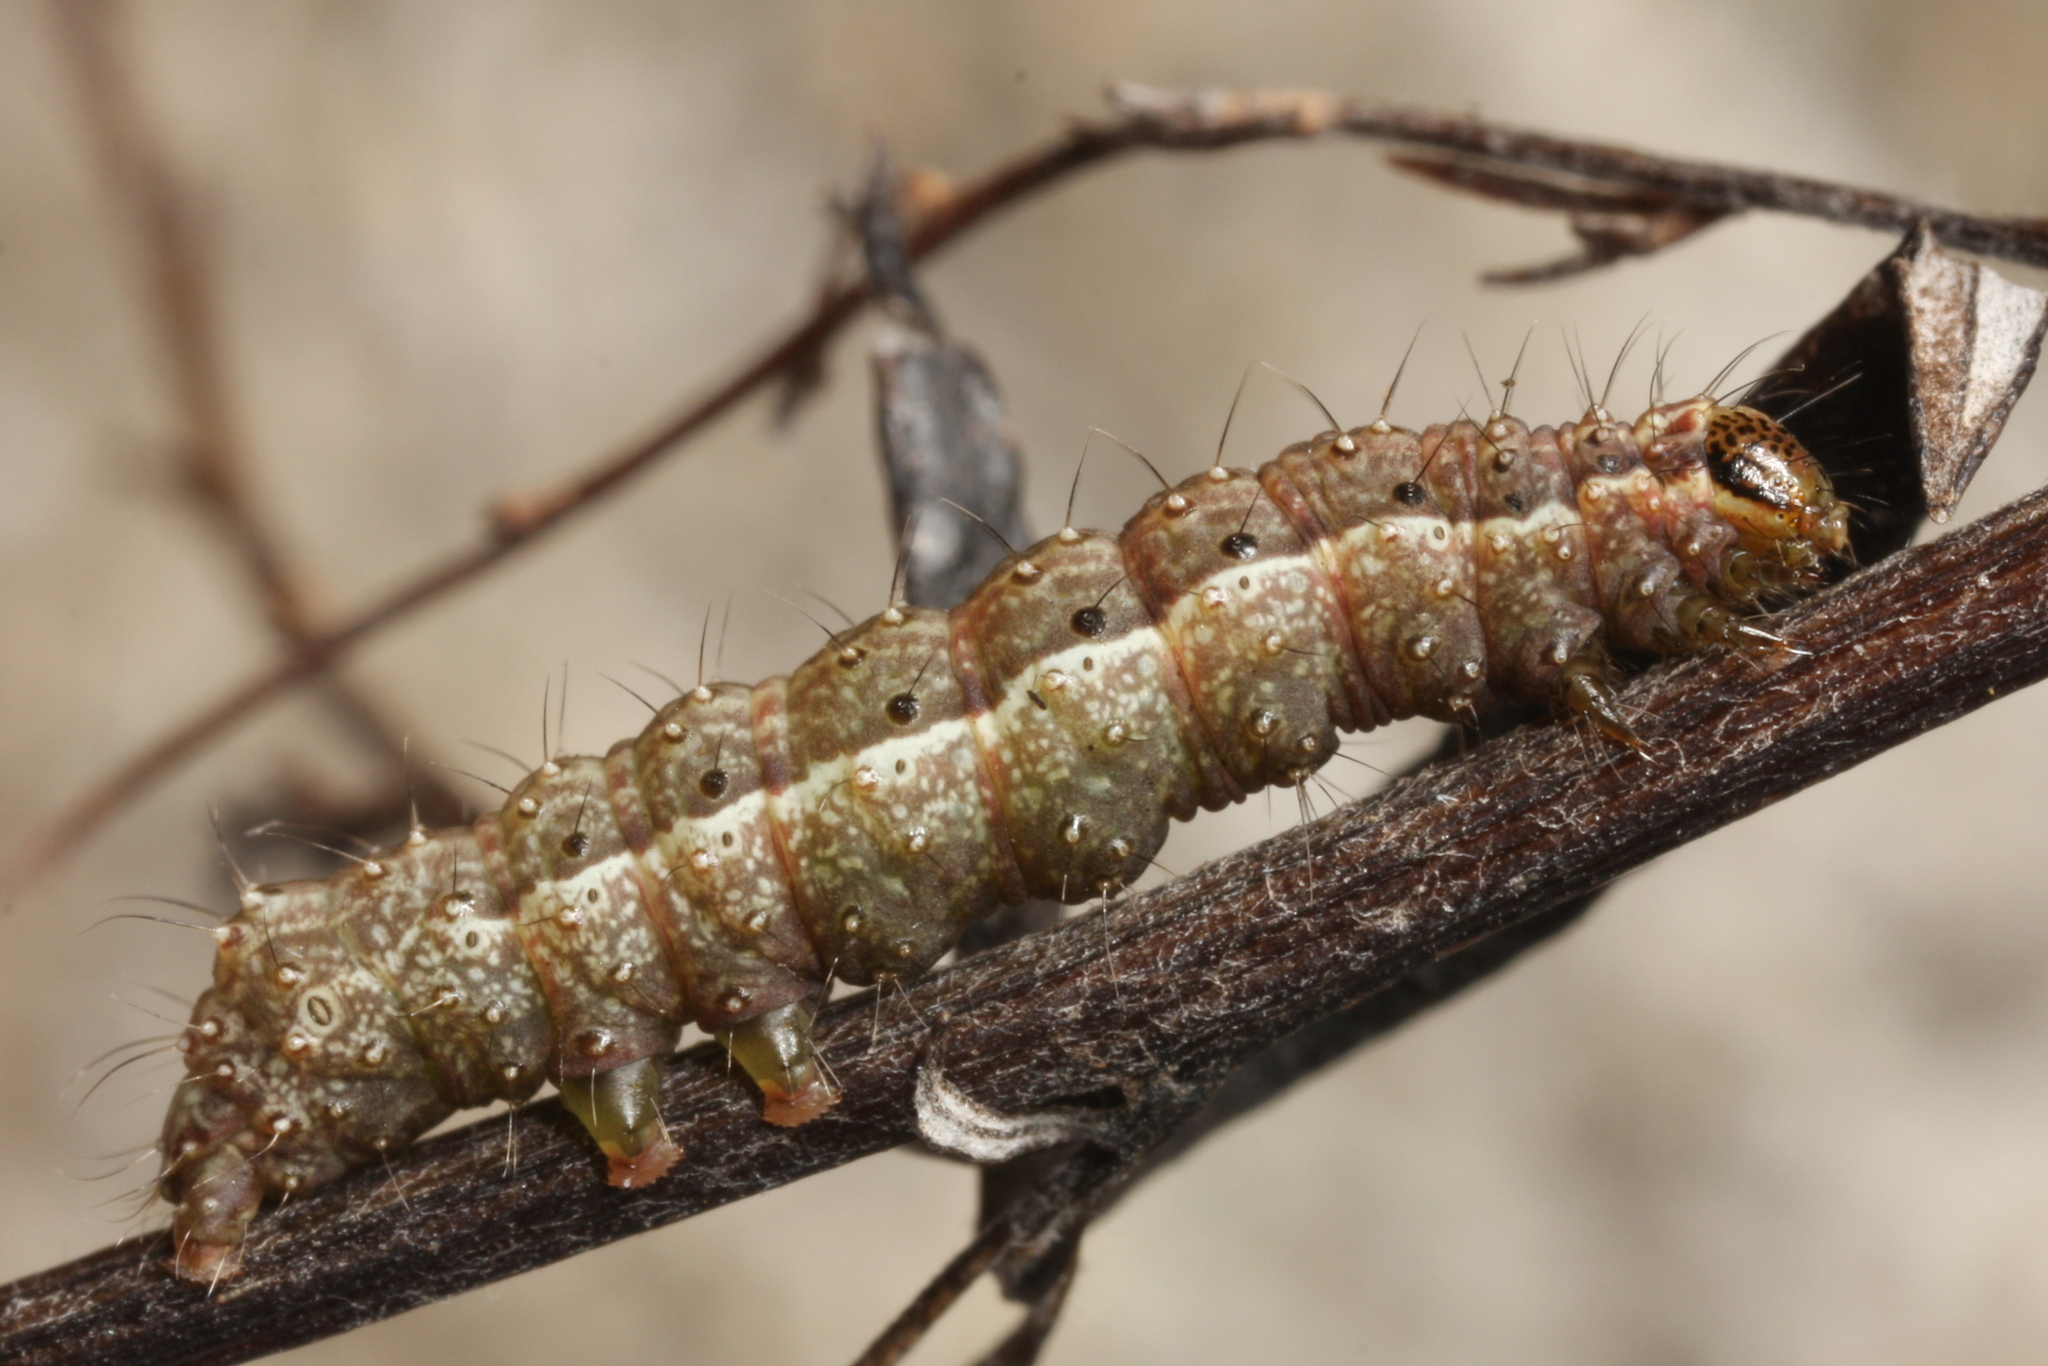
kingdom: Animalia
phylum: Arthropoda
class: Insecta
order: Lepidoptera
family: Noctuidae
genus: Macdunnoughia
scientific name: Macdunnoughia confusa
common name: Dewick's plusia
